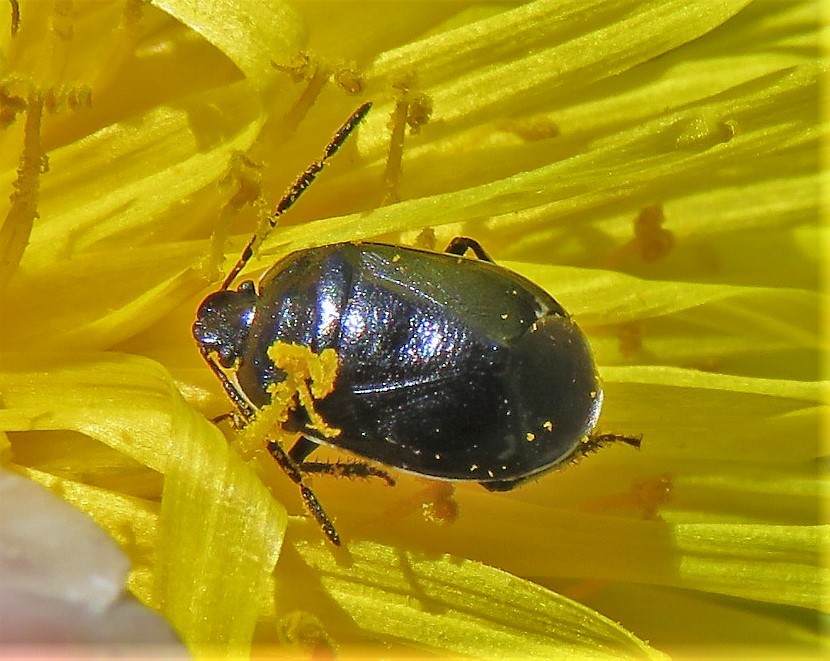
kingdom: Animalia
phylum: Arthropoda
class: Insecta
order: Hemiptera
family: Cydnidae
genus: Sehirus
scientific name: Sehirus cinctus
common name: White-margined burrower bug
